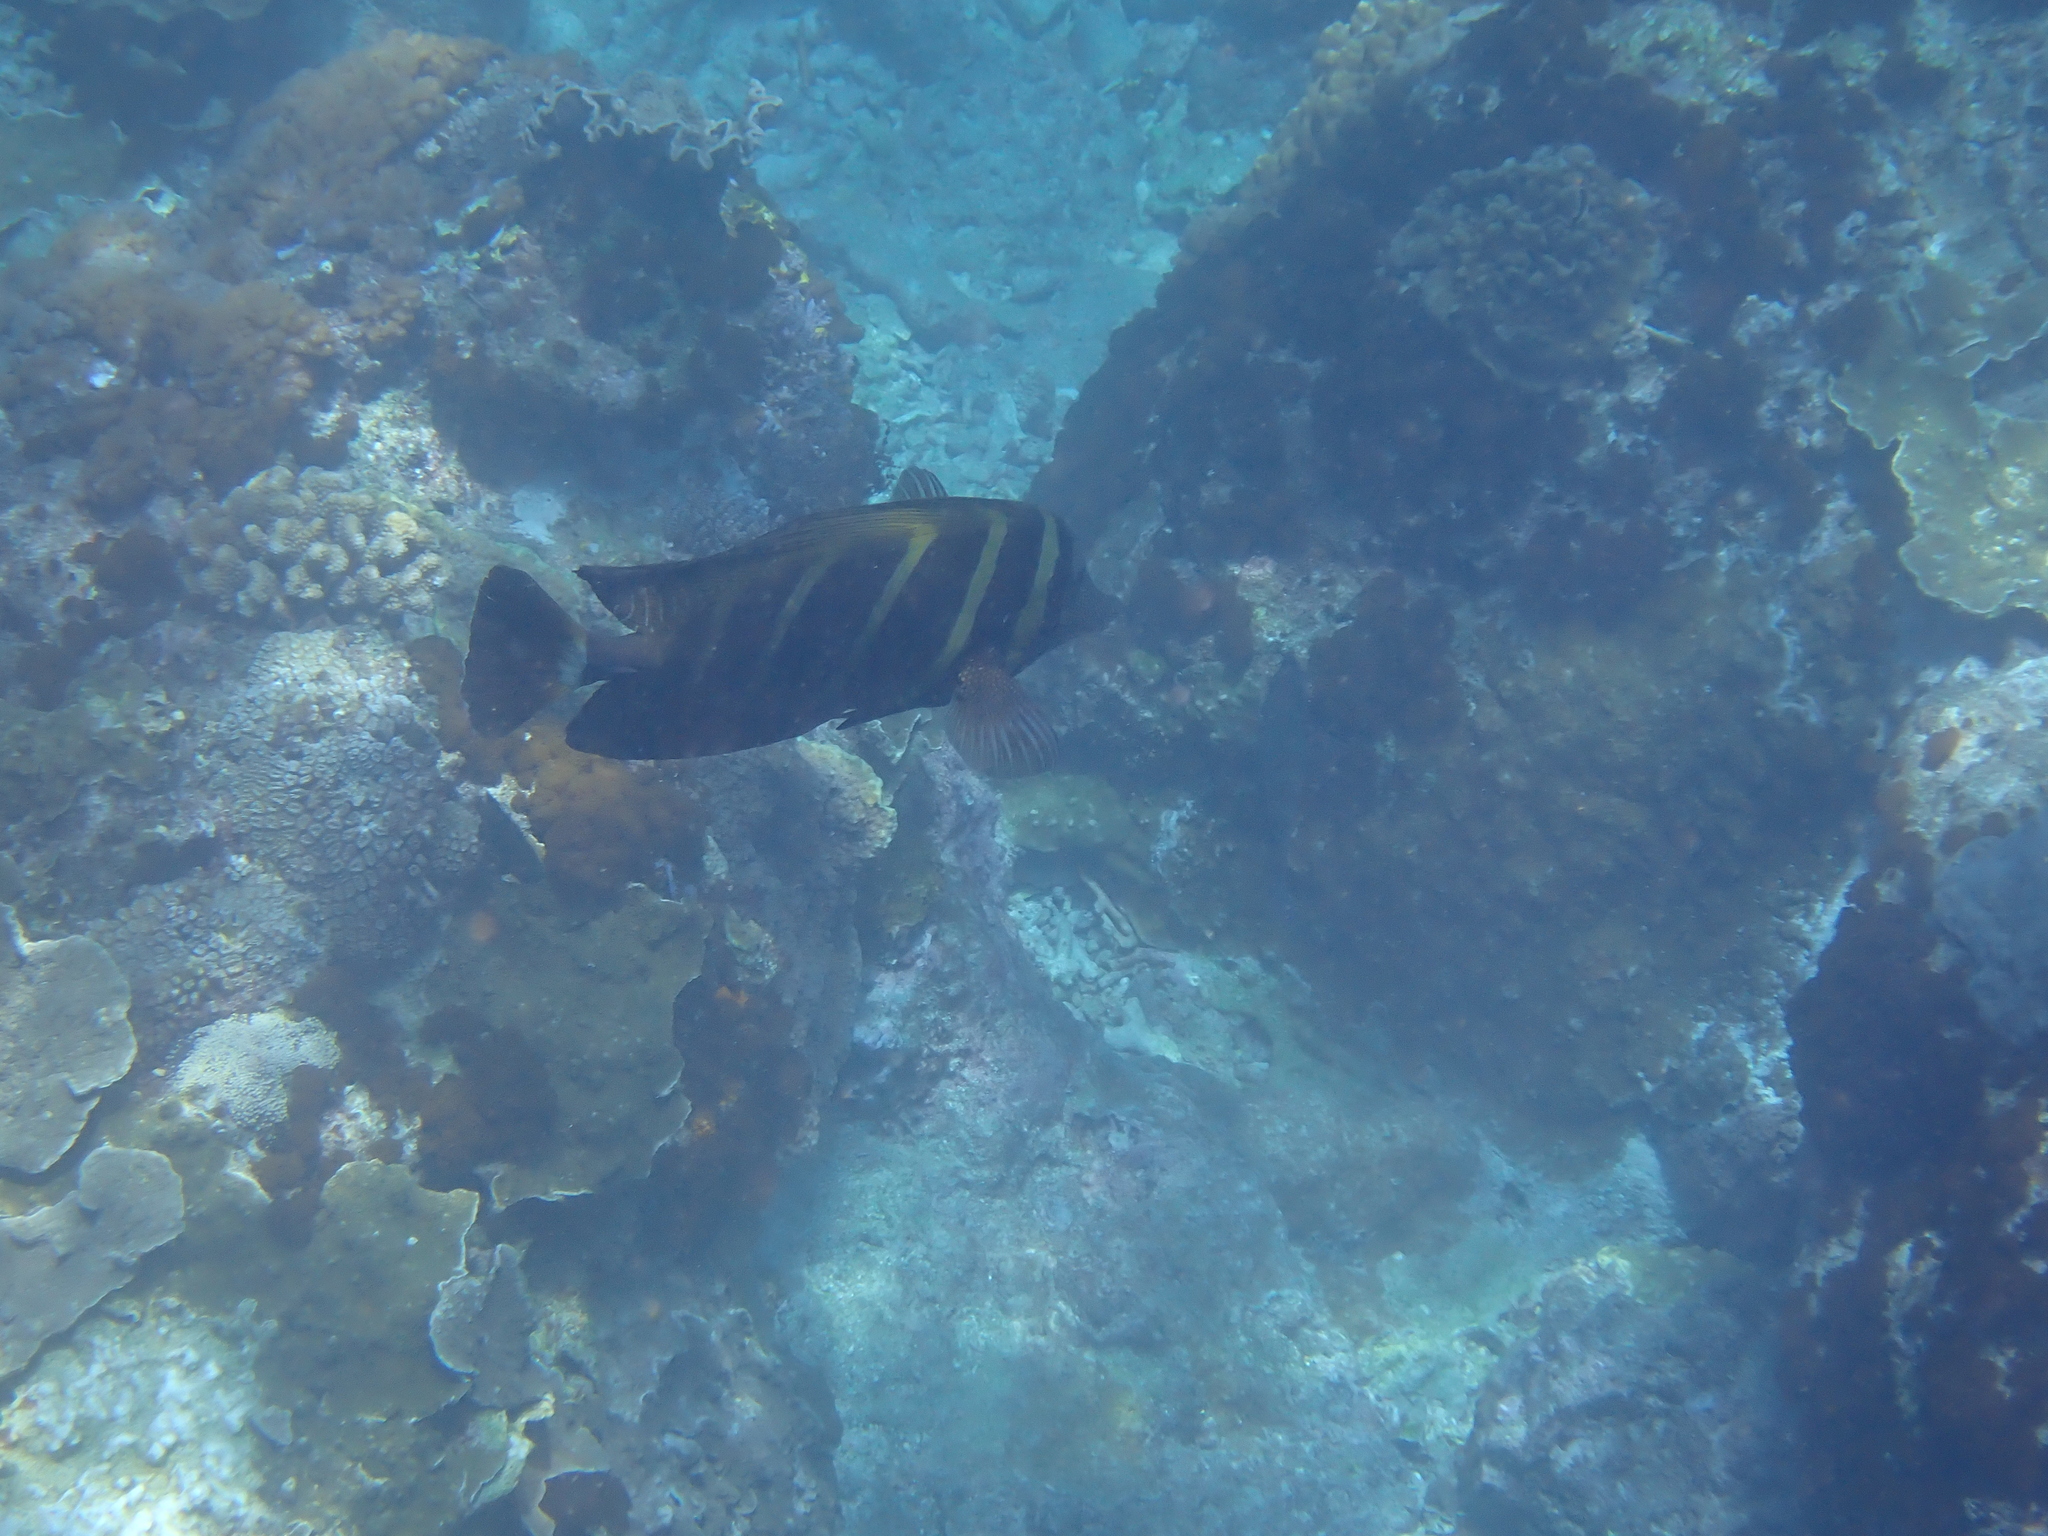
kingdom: Animalia
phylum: Chordata
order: Perciformes
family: Acanthuridae
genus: Zebrasoma
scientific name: Zebrasoma veliferum
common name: Sailfin surgeonfish
